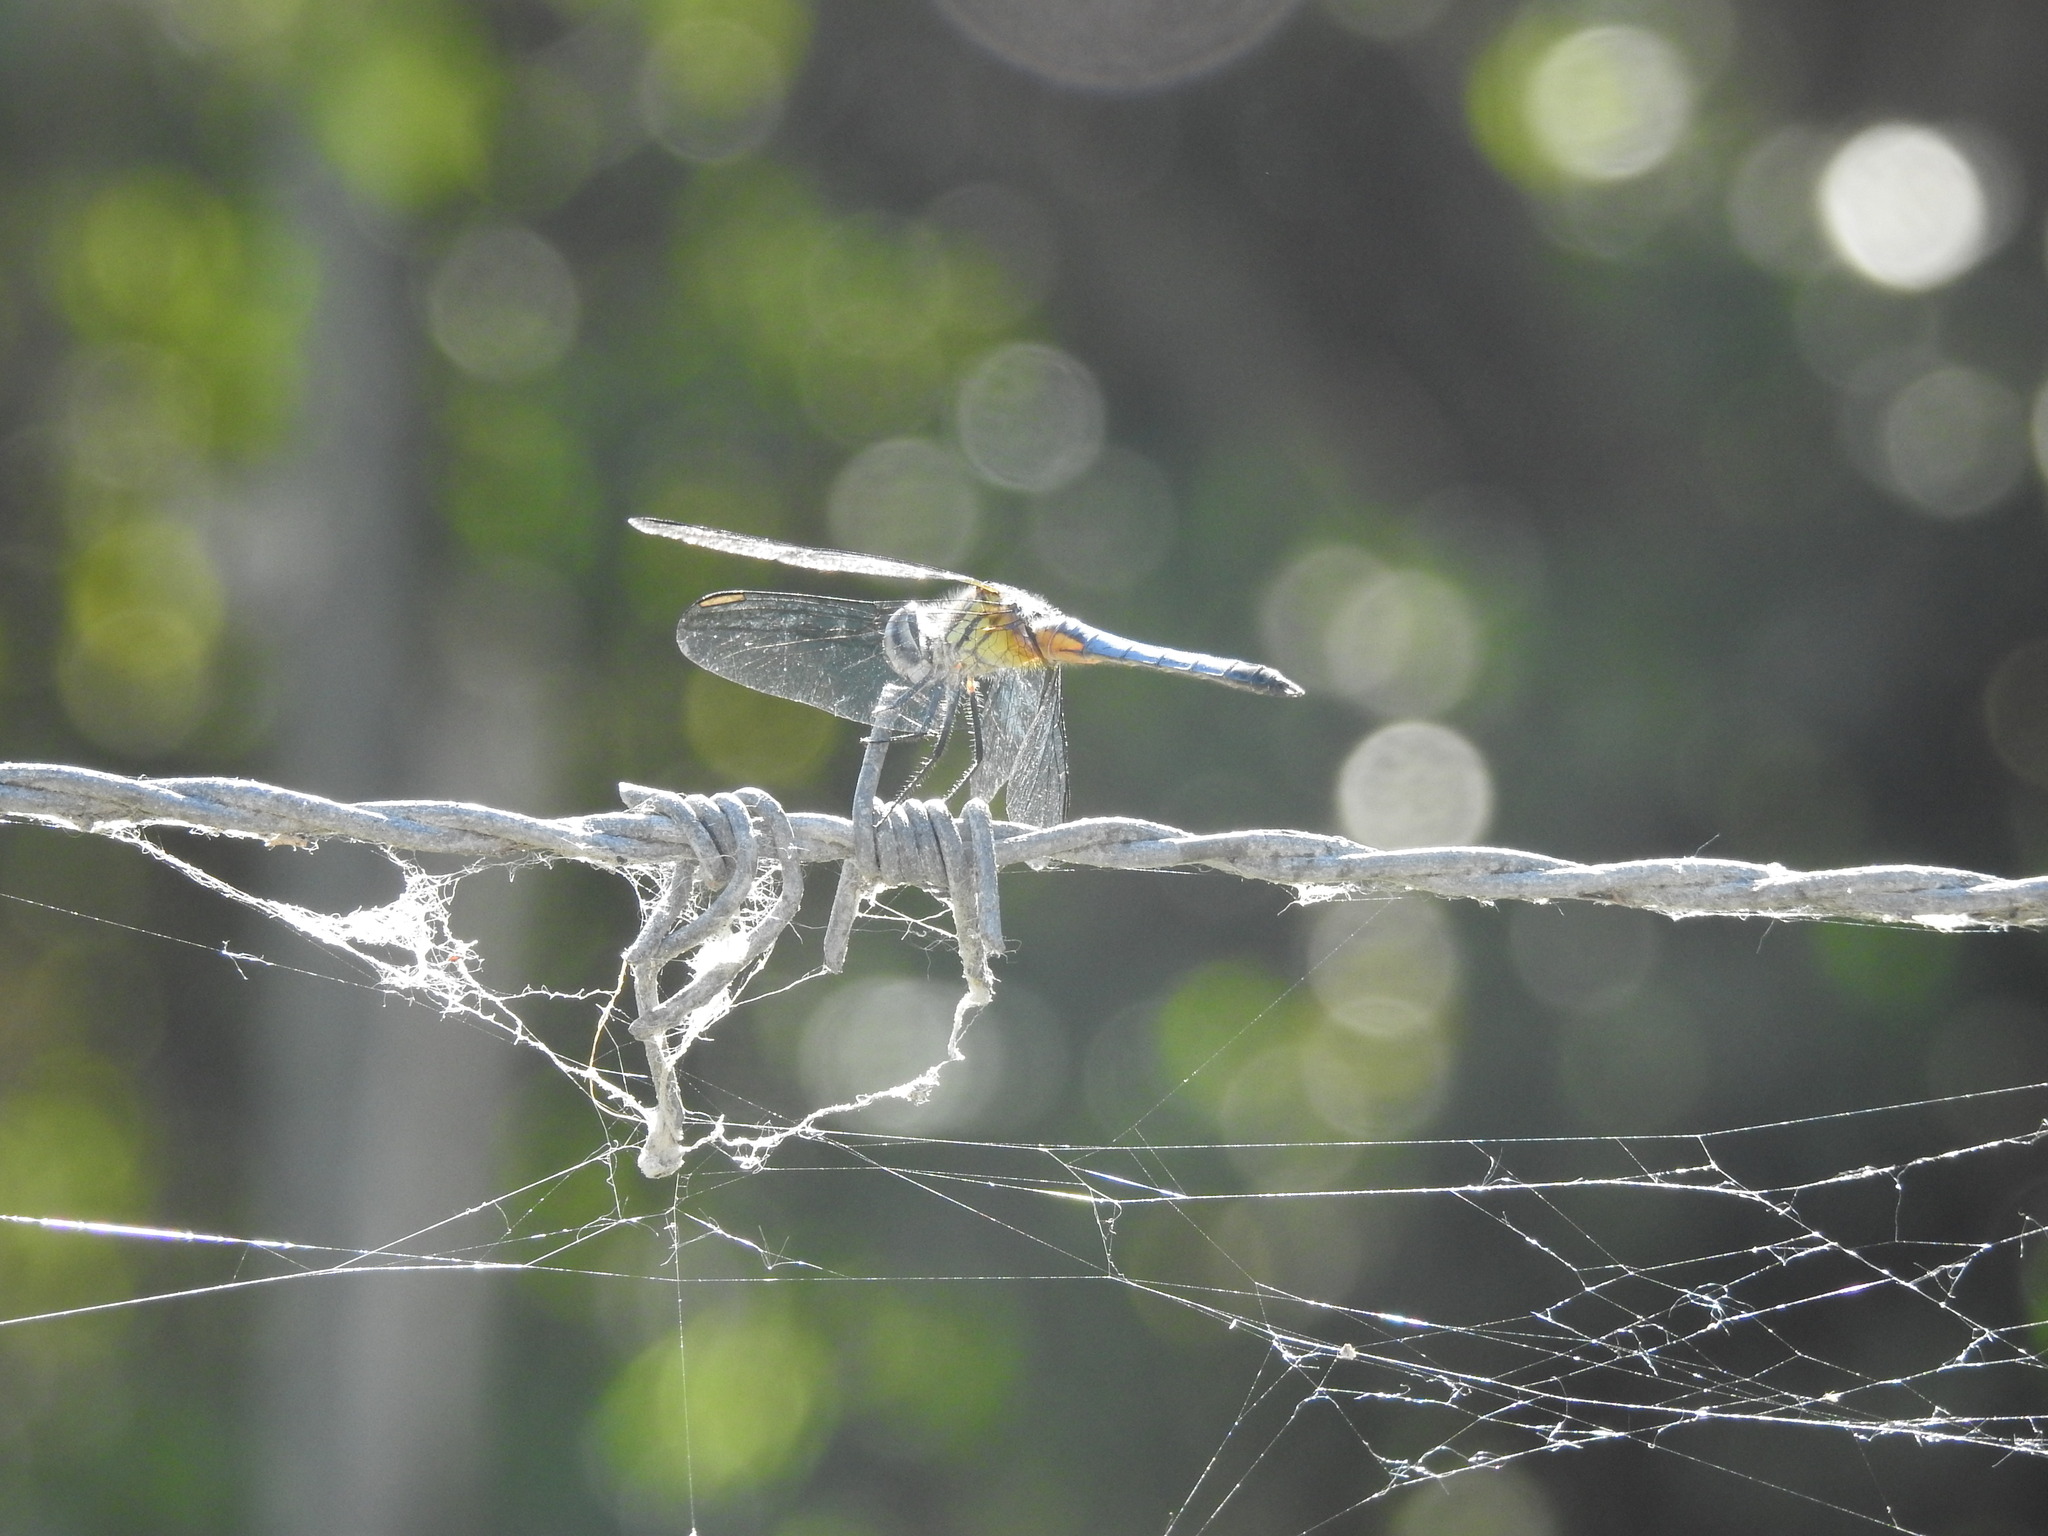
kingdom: Animalia
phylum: Arthropoda
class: Insecta
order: Odonata
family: Libellulidae
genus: Pachydiplax
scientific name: Pachydiplax longipennis
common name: Blue dasher
